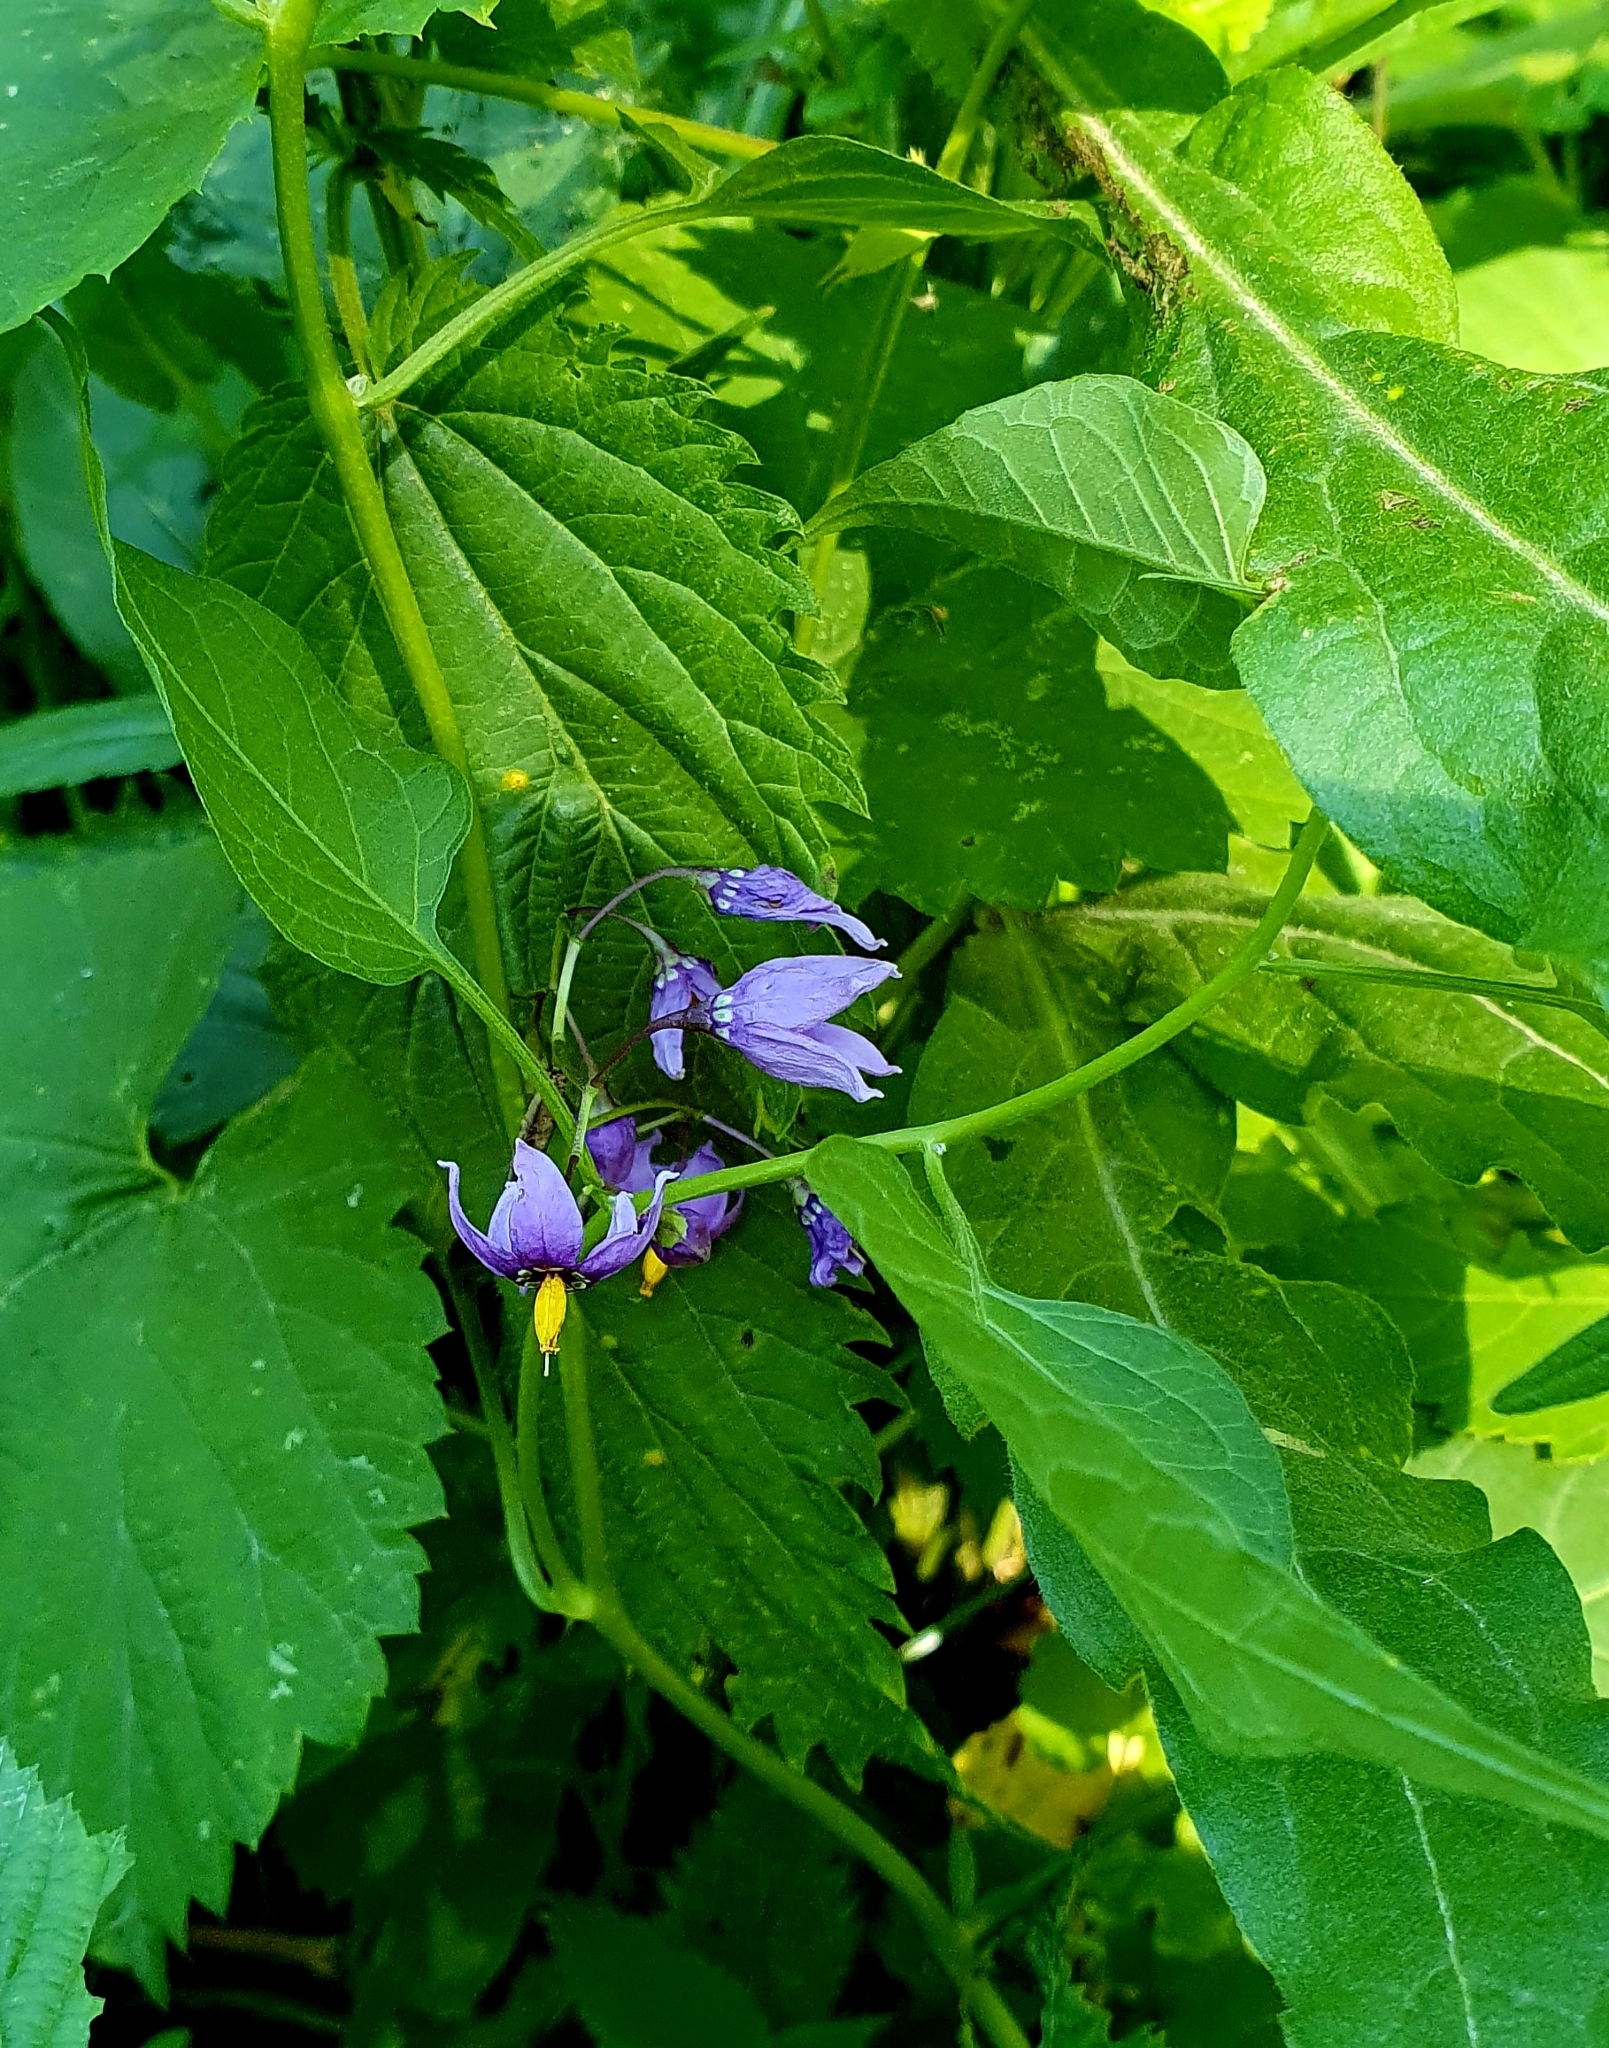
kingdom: Plantae
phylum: Tracheophyta
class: Magnoliopsida
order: Solanales
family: Solanaceae
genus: Solanum
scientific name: Solanum dulcamara
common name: Climbing nightshade
